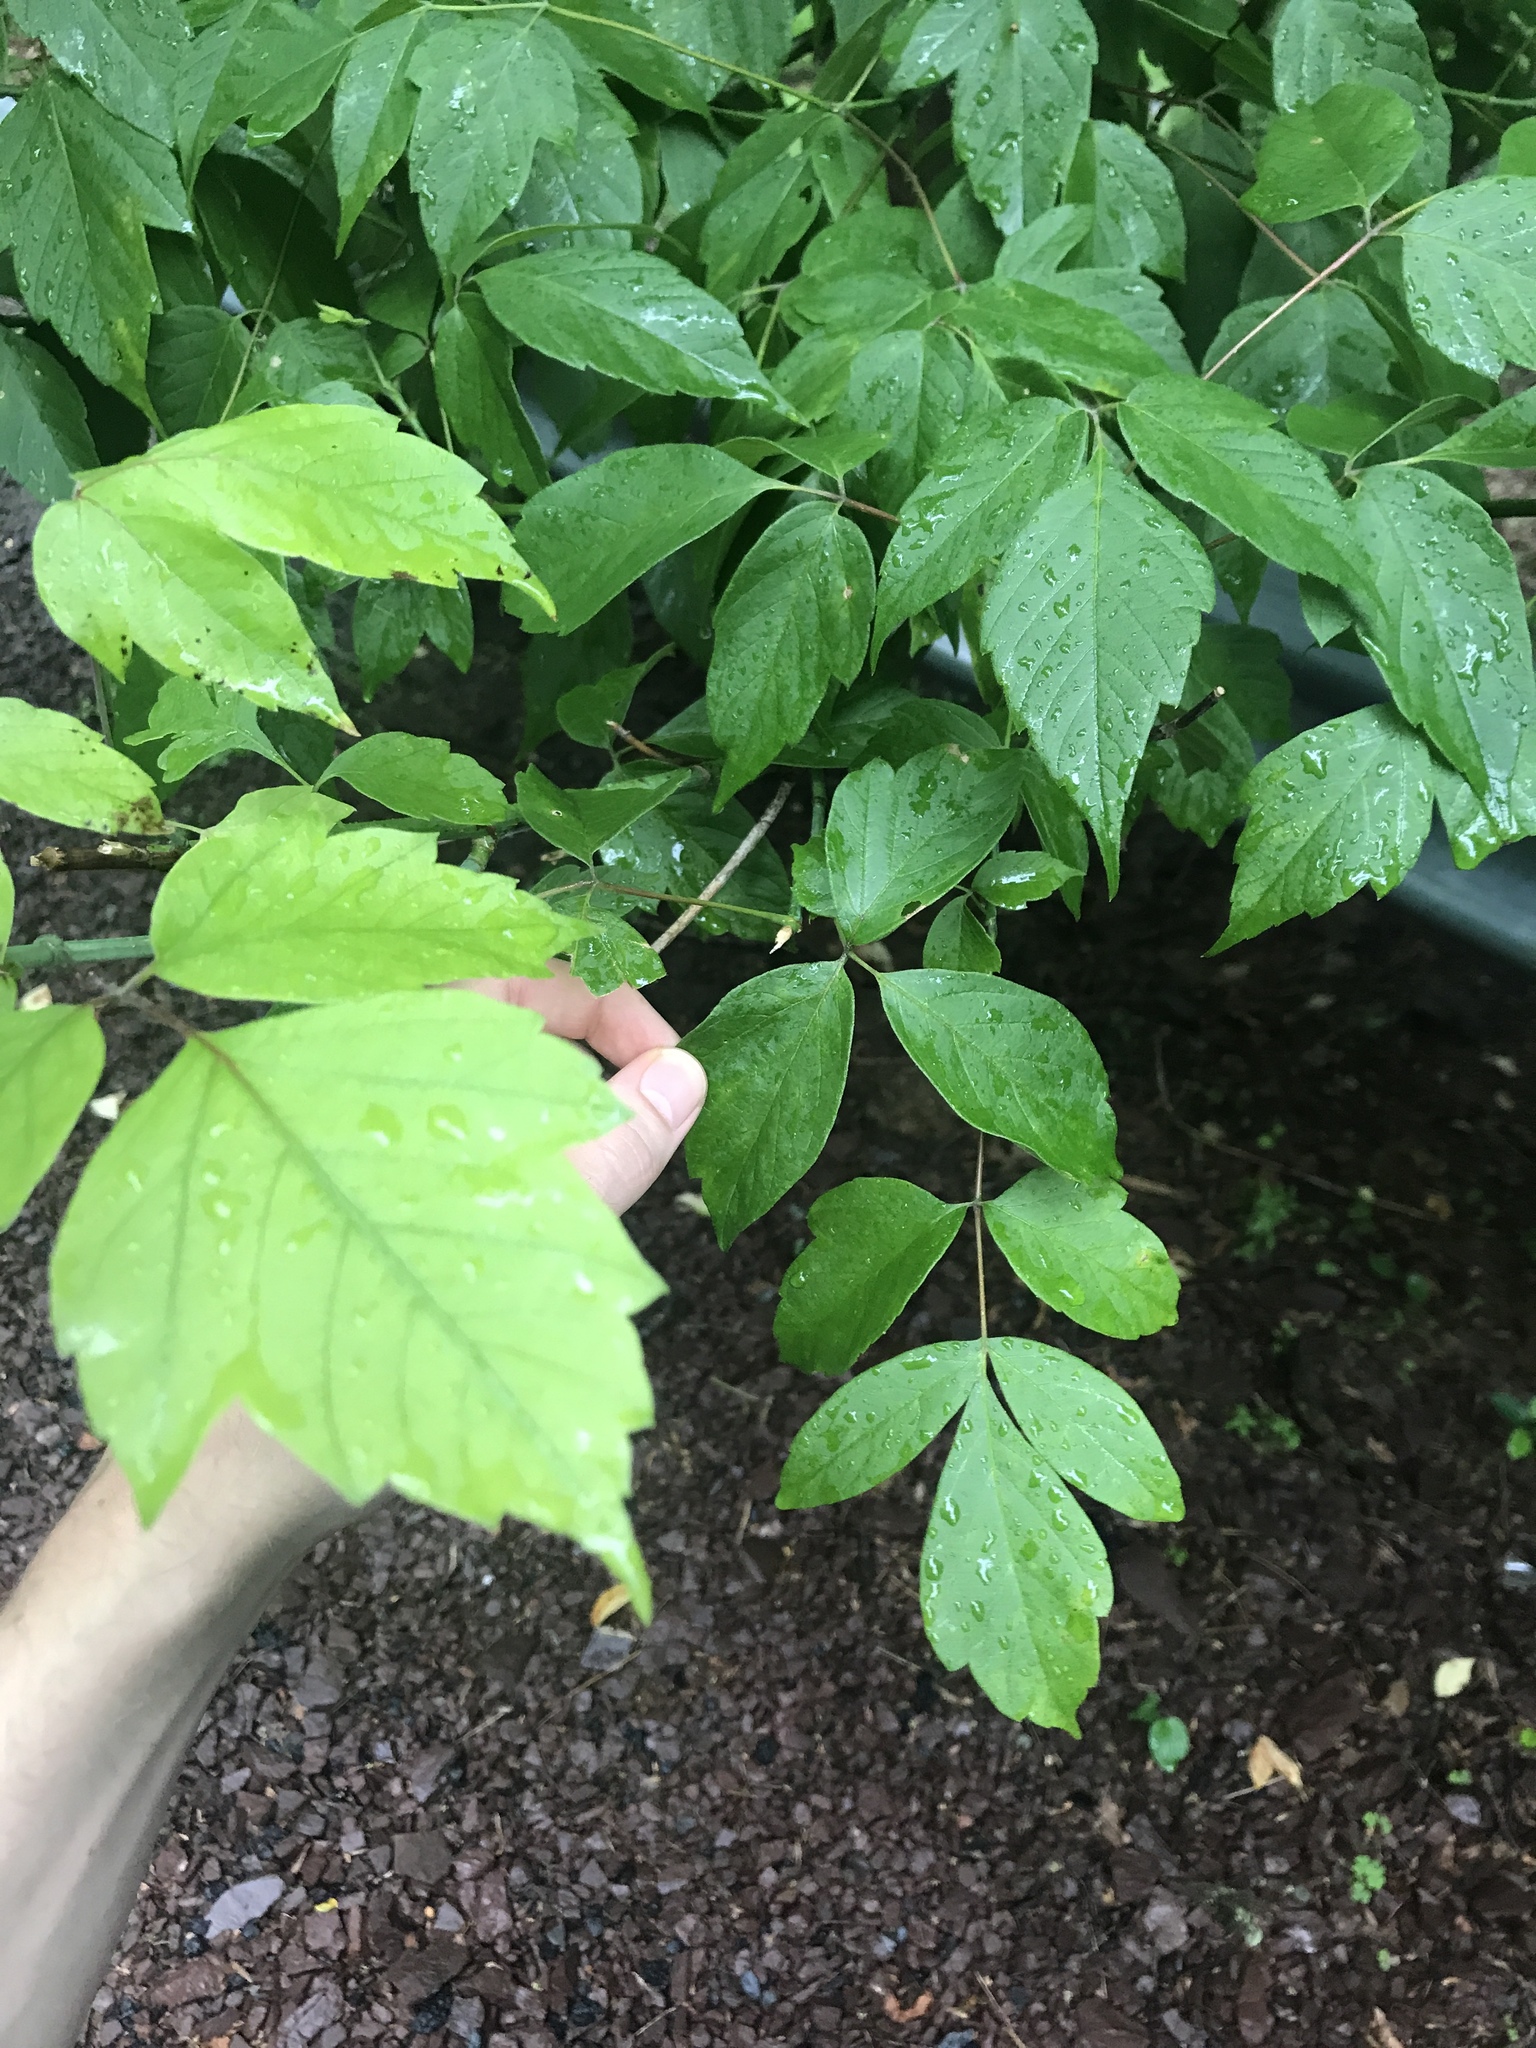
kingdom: Plantae
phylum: Tracheophyta
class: Magnoliopsida
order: Sapindales
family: Sapindaceae
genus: Acer
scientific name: Acer negundo
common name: Ashleaf maple
